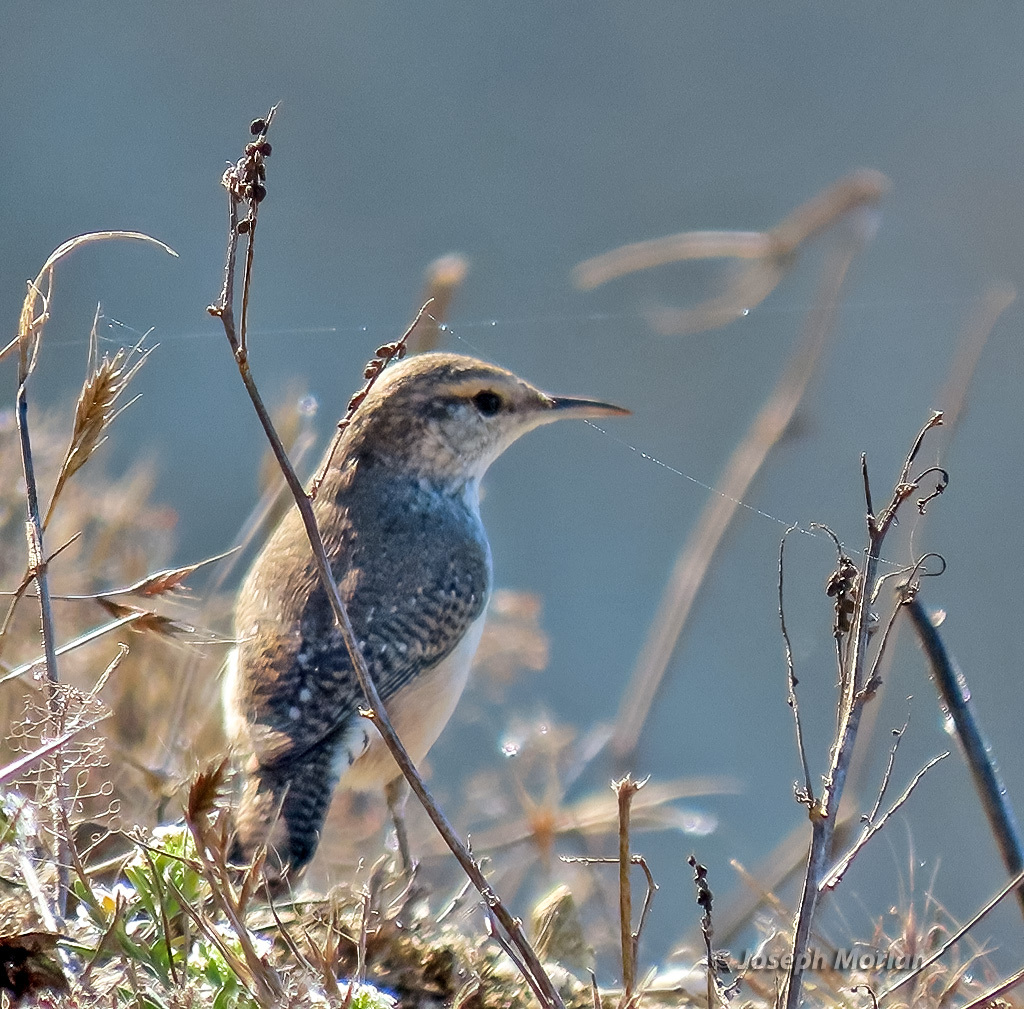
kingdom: Animalia
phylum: Chordata
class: Aves
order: Passeriformes
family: Troglodytidae
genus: Salpinctes
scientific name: Salpinctes obsoletus
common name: Rock wren
